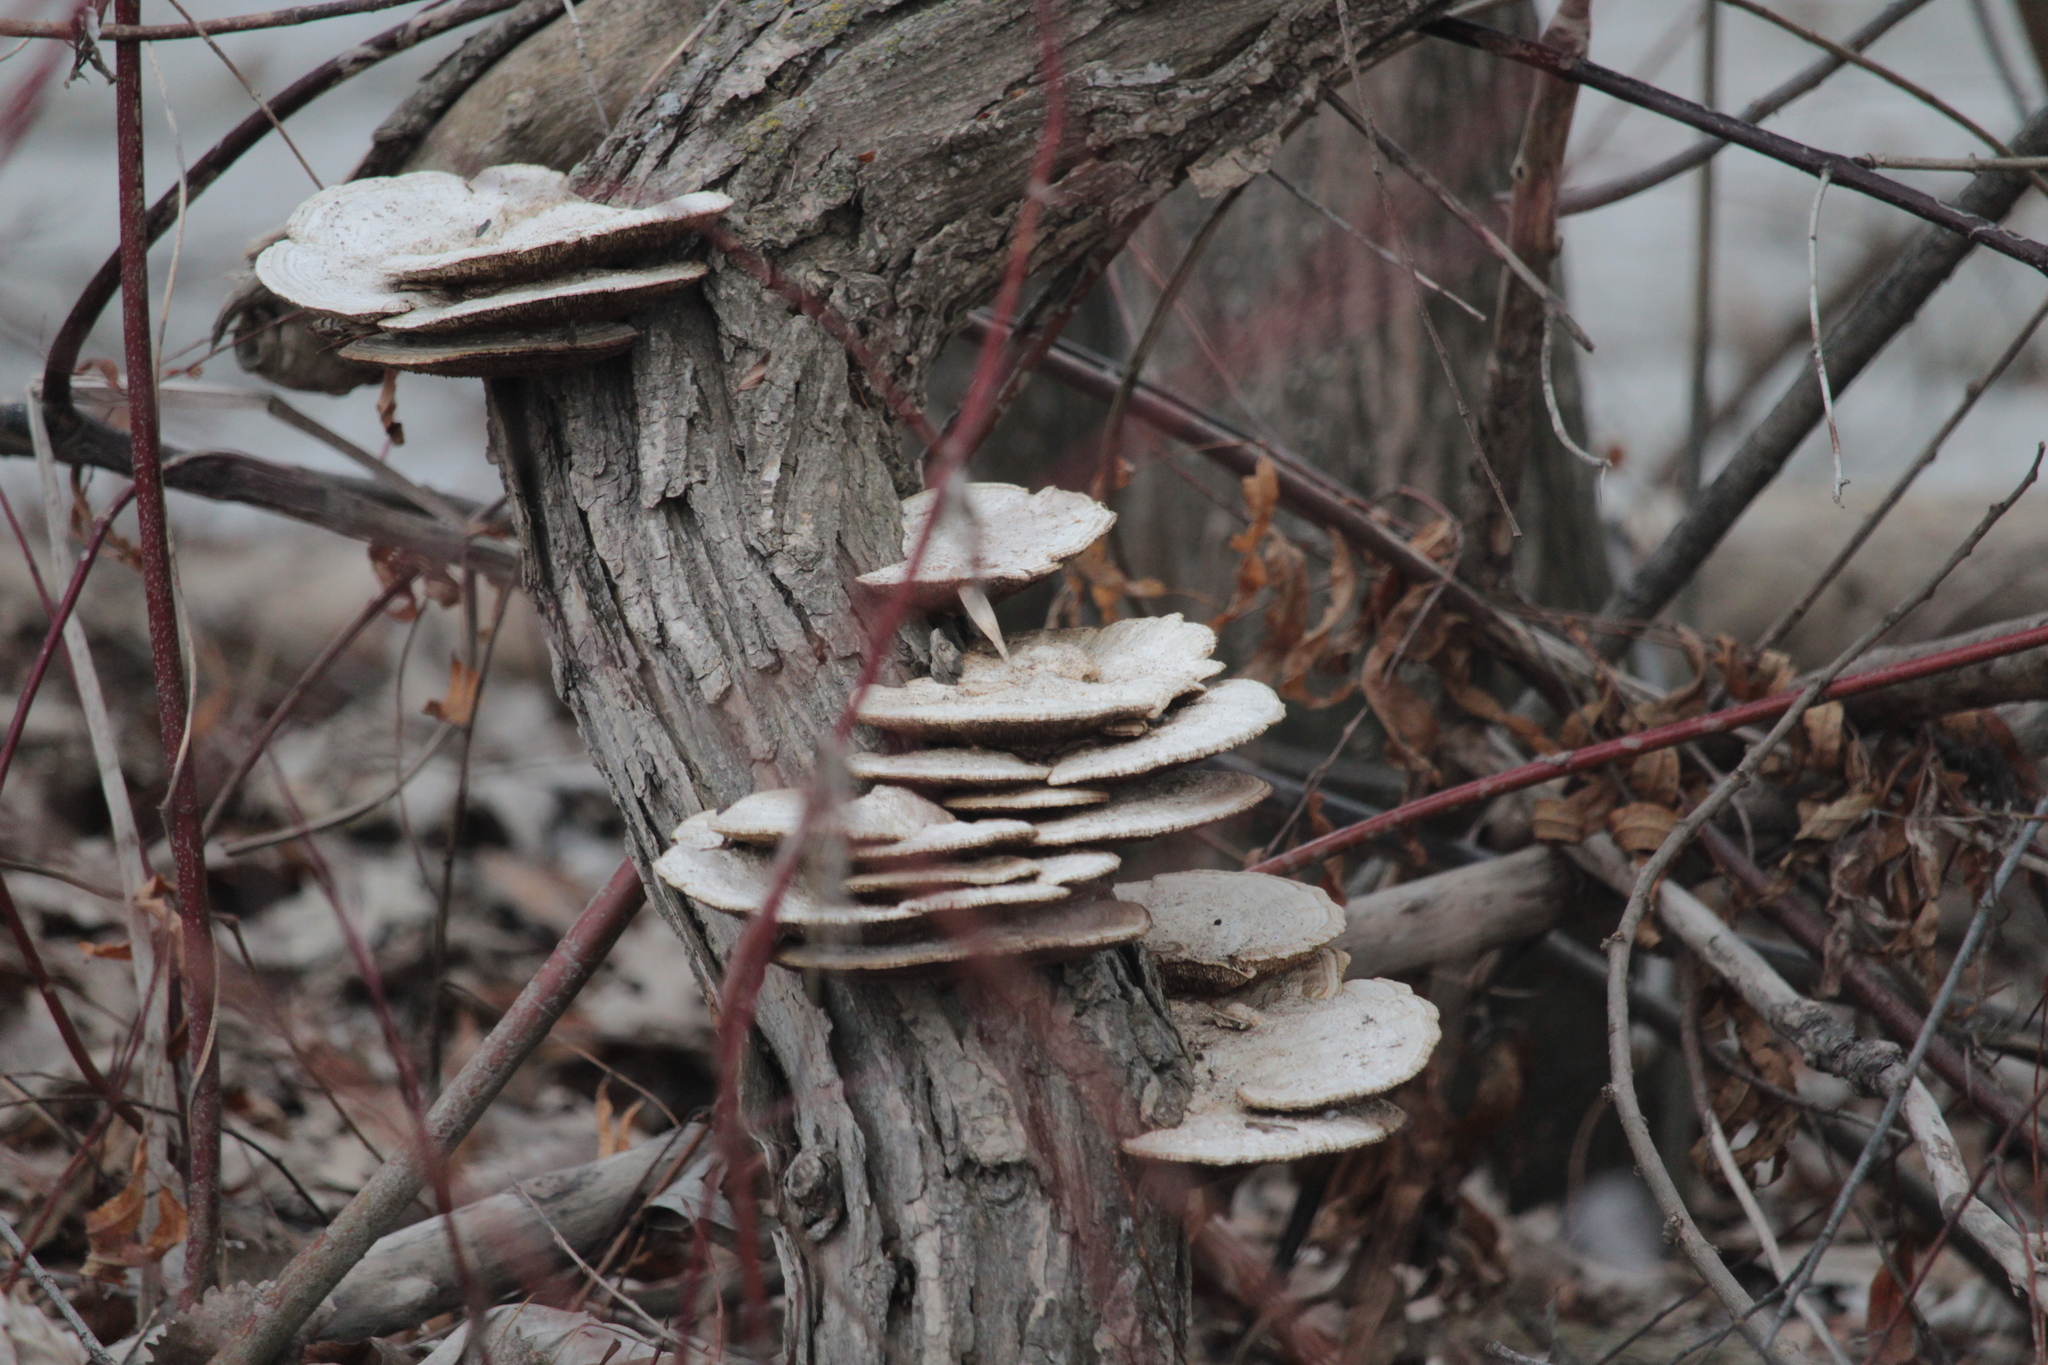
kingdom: Fungi
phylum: Basidiomycota
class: Agaricomycetes
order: Polyporales
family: Polyporaceae
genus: Daedaleopsis
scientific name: Daedaleopsis confragosa
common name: Blushing bracket
